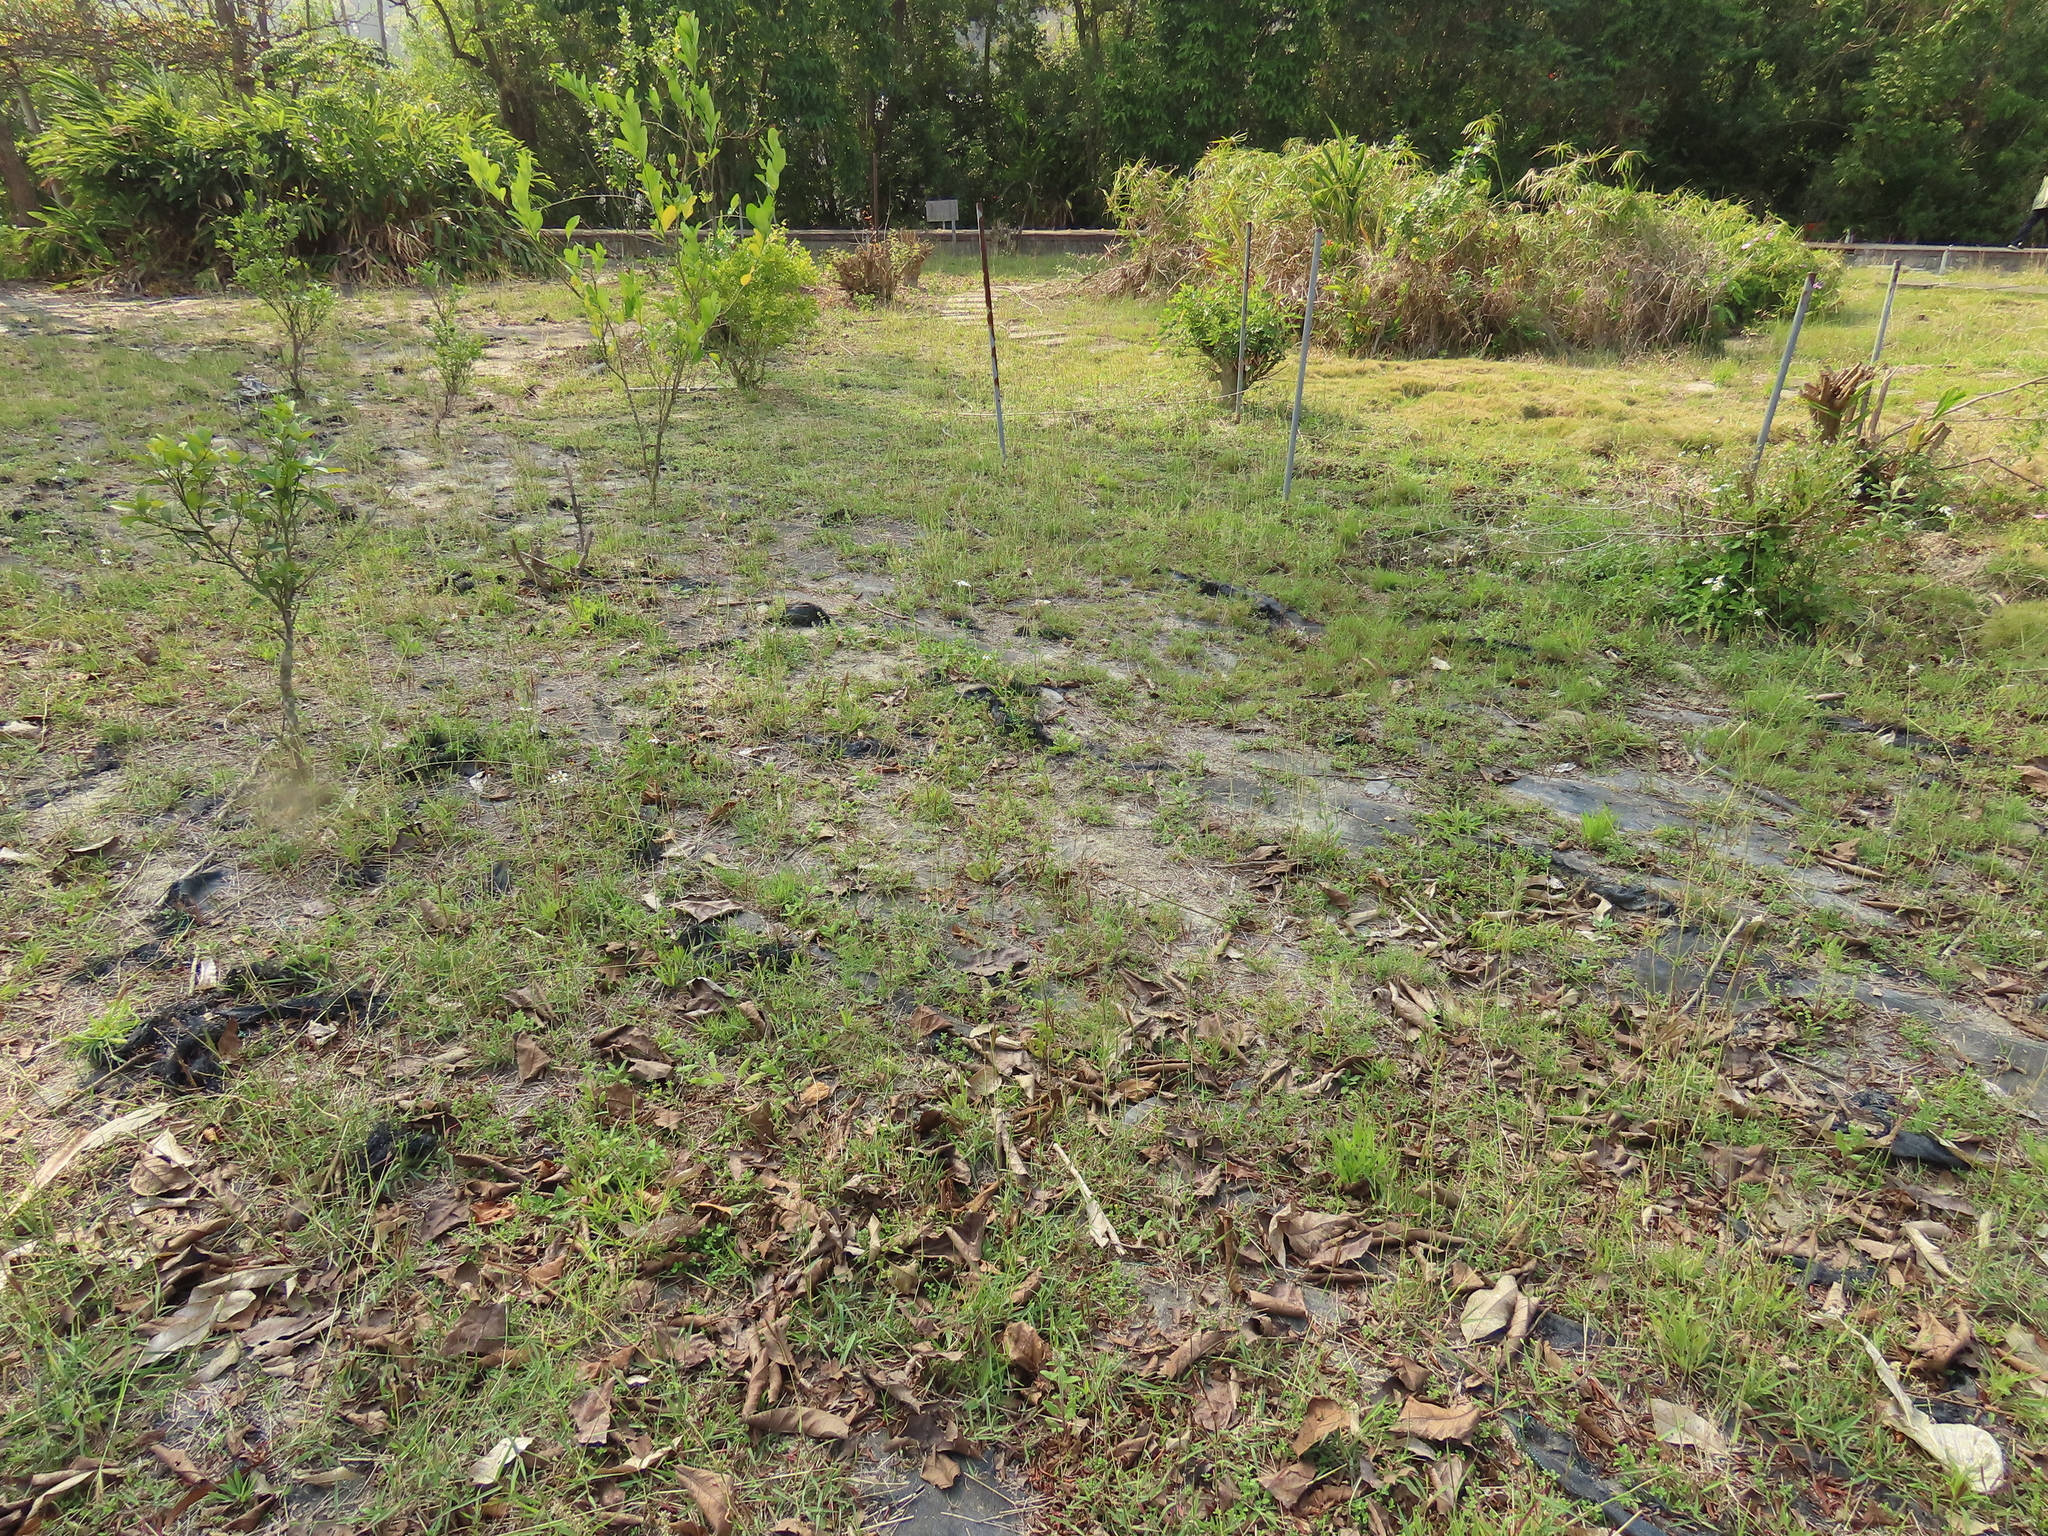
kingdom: Plantae
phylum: Tracheophyta
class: Magnoliopsida
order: Lamiales
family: Lamiaceae
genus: Salvia
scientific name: Salvia plebeia
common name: Australian sage
